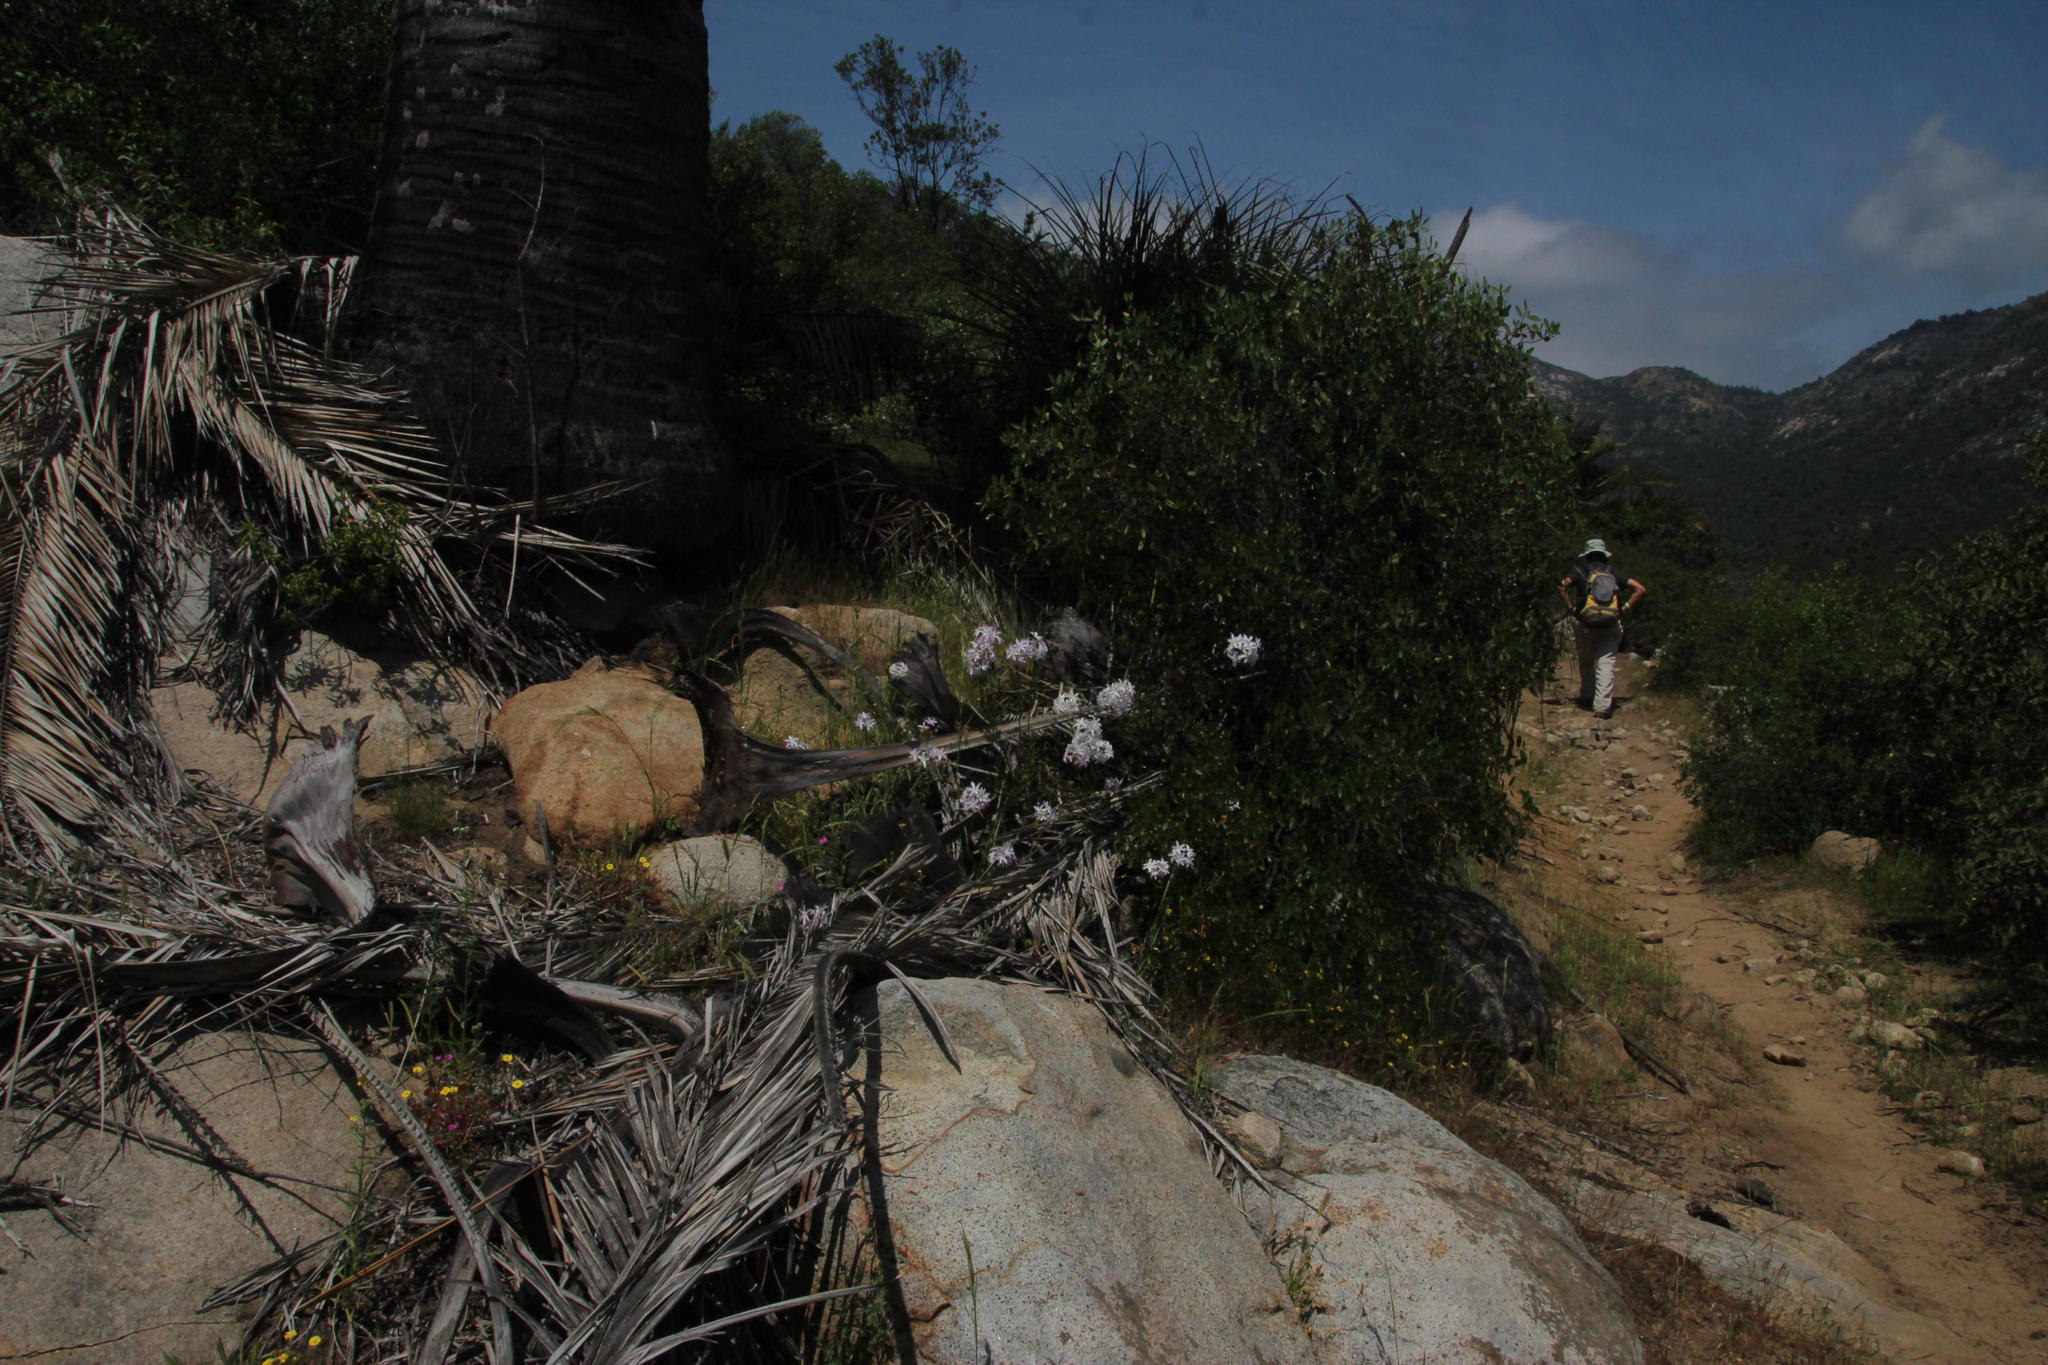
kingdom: Plantae
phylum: Tracheophyta
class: Liliopsida
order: Asparagales
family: Amaryllidaceae
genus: Leucocoryne
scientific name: Leucocoryne ixioides
